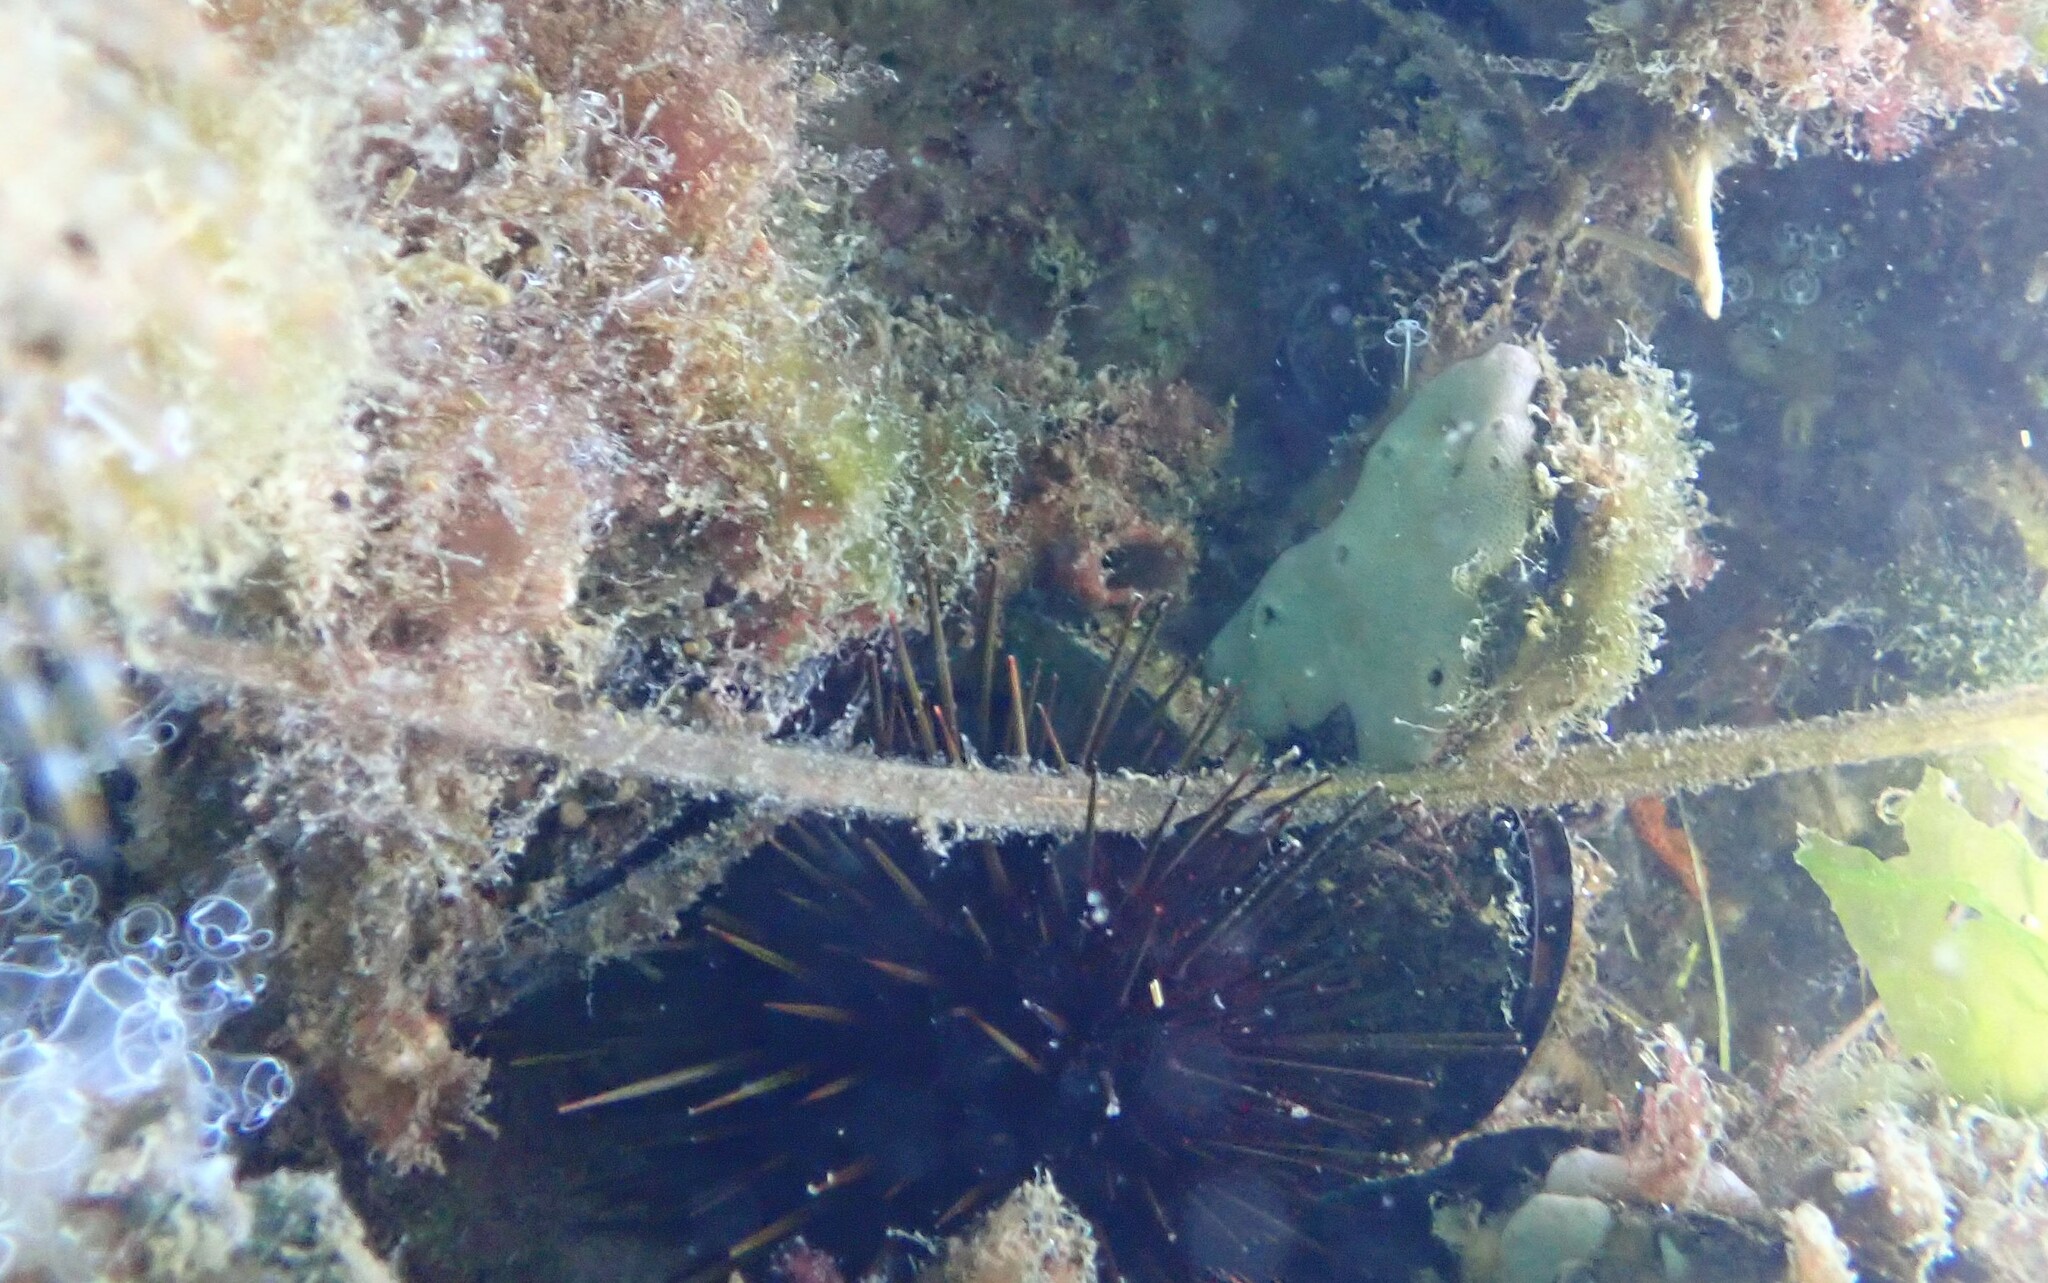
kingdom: Animalia
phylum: Echinodermata
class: Echinoidea
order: Camarodonta
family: Echinometridae
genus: Heliocidaris
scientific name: Heliocidaris erythrogramma
